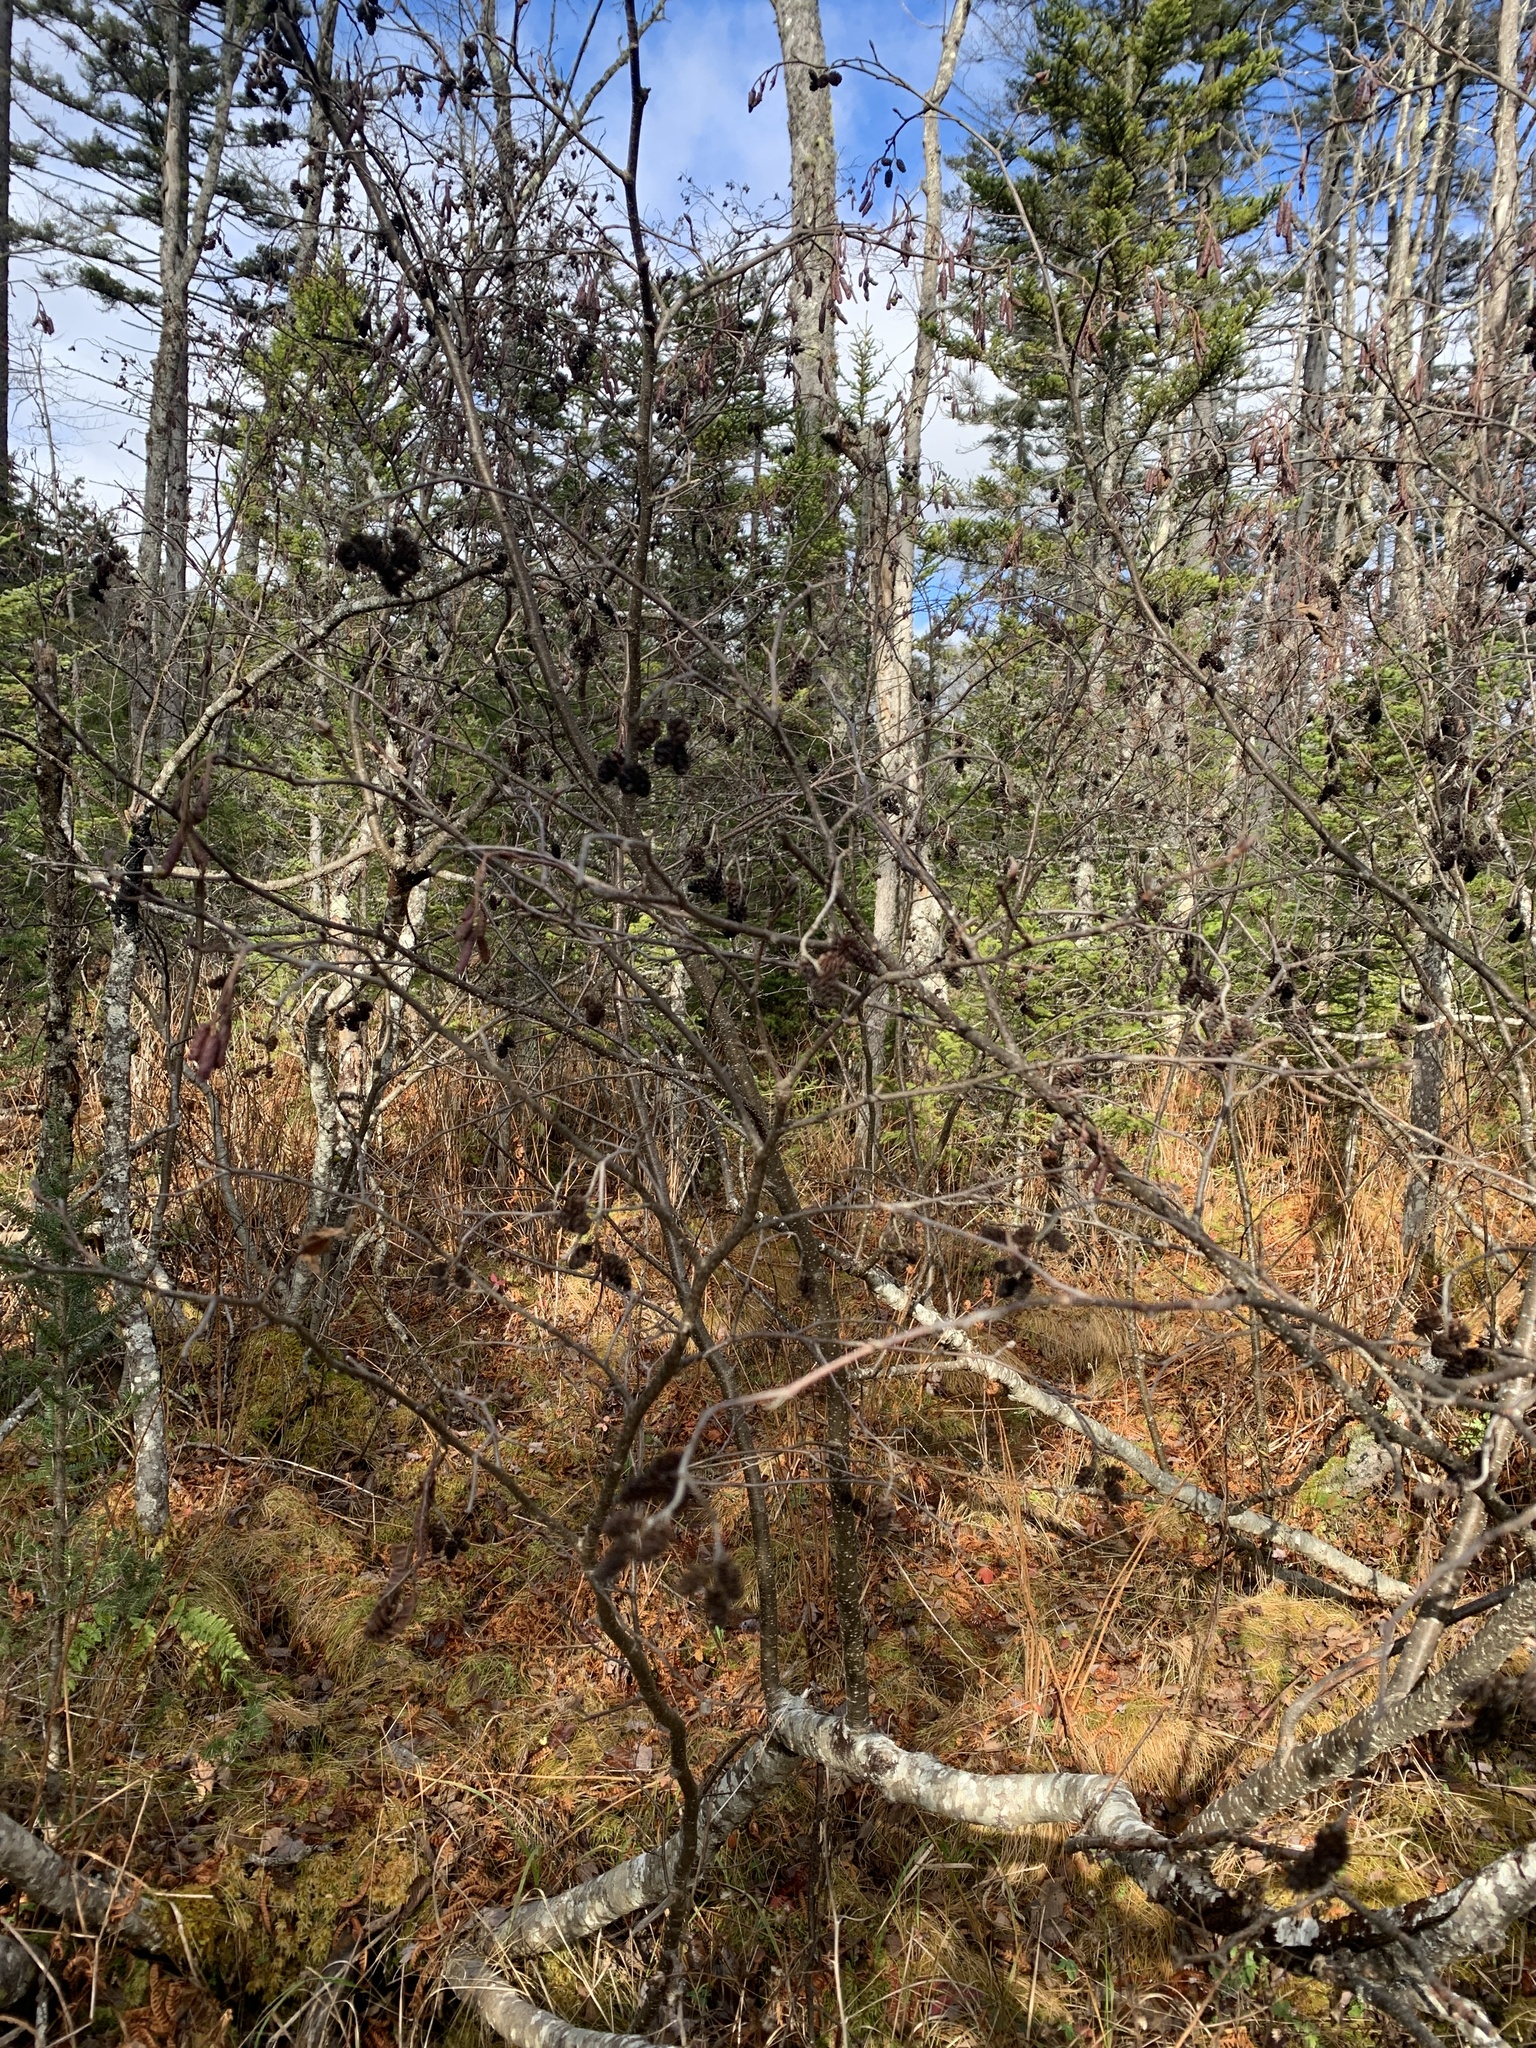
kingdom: Plantae
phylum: Tracheophyta
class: Magnoliopsida
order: Fagales
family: Betulaceae
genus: Alnus
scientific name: Alnus incana
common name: Grey alder
